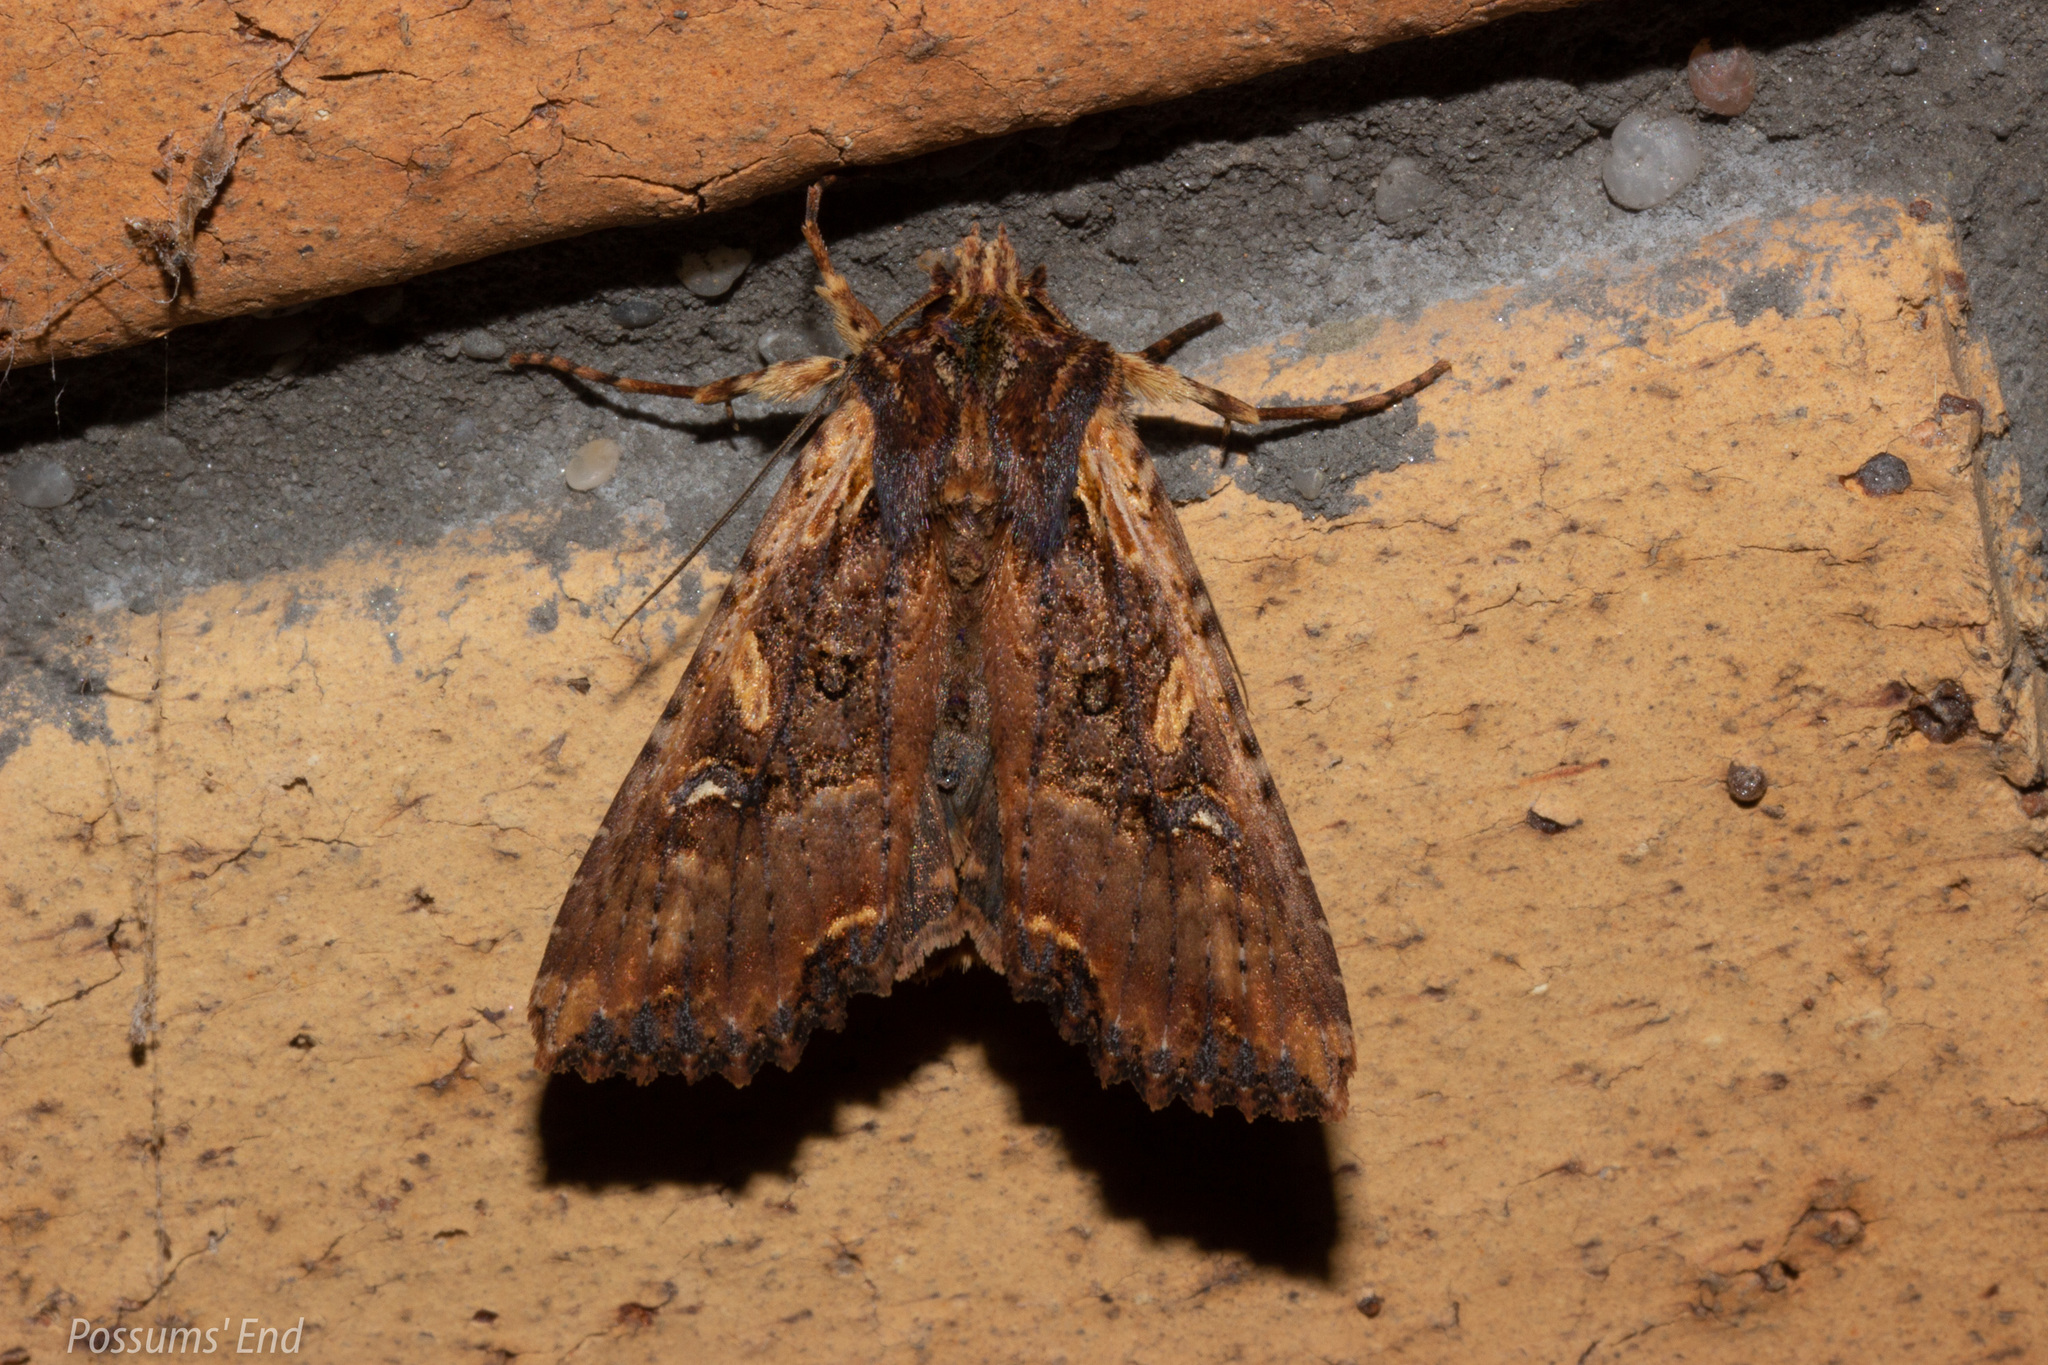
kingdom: Animalia
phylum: Arthropoda
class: Insecta
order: Lepidoptera
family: Noctuidae
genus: Meterana
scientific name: Meterana stipata
